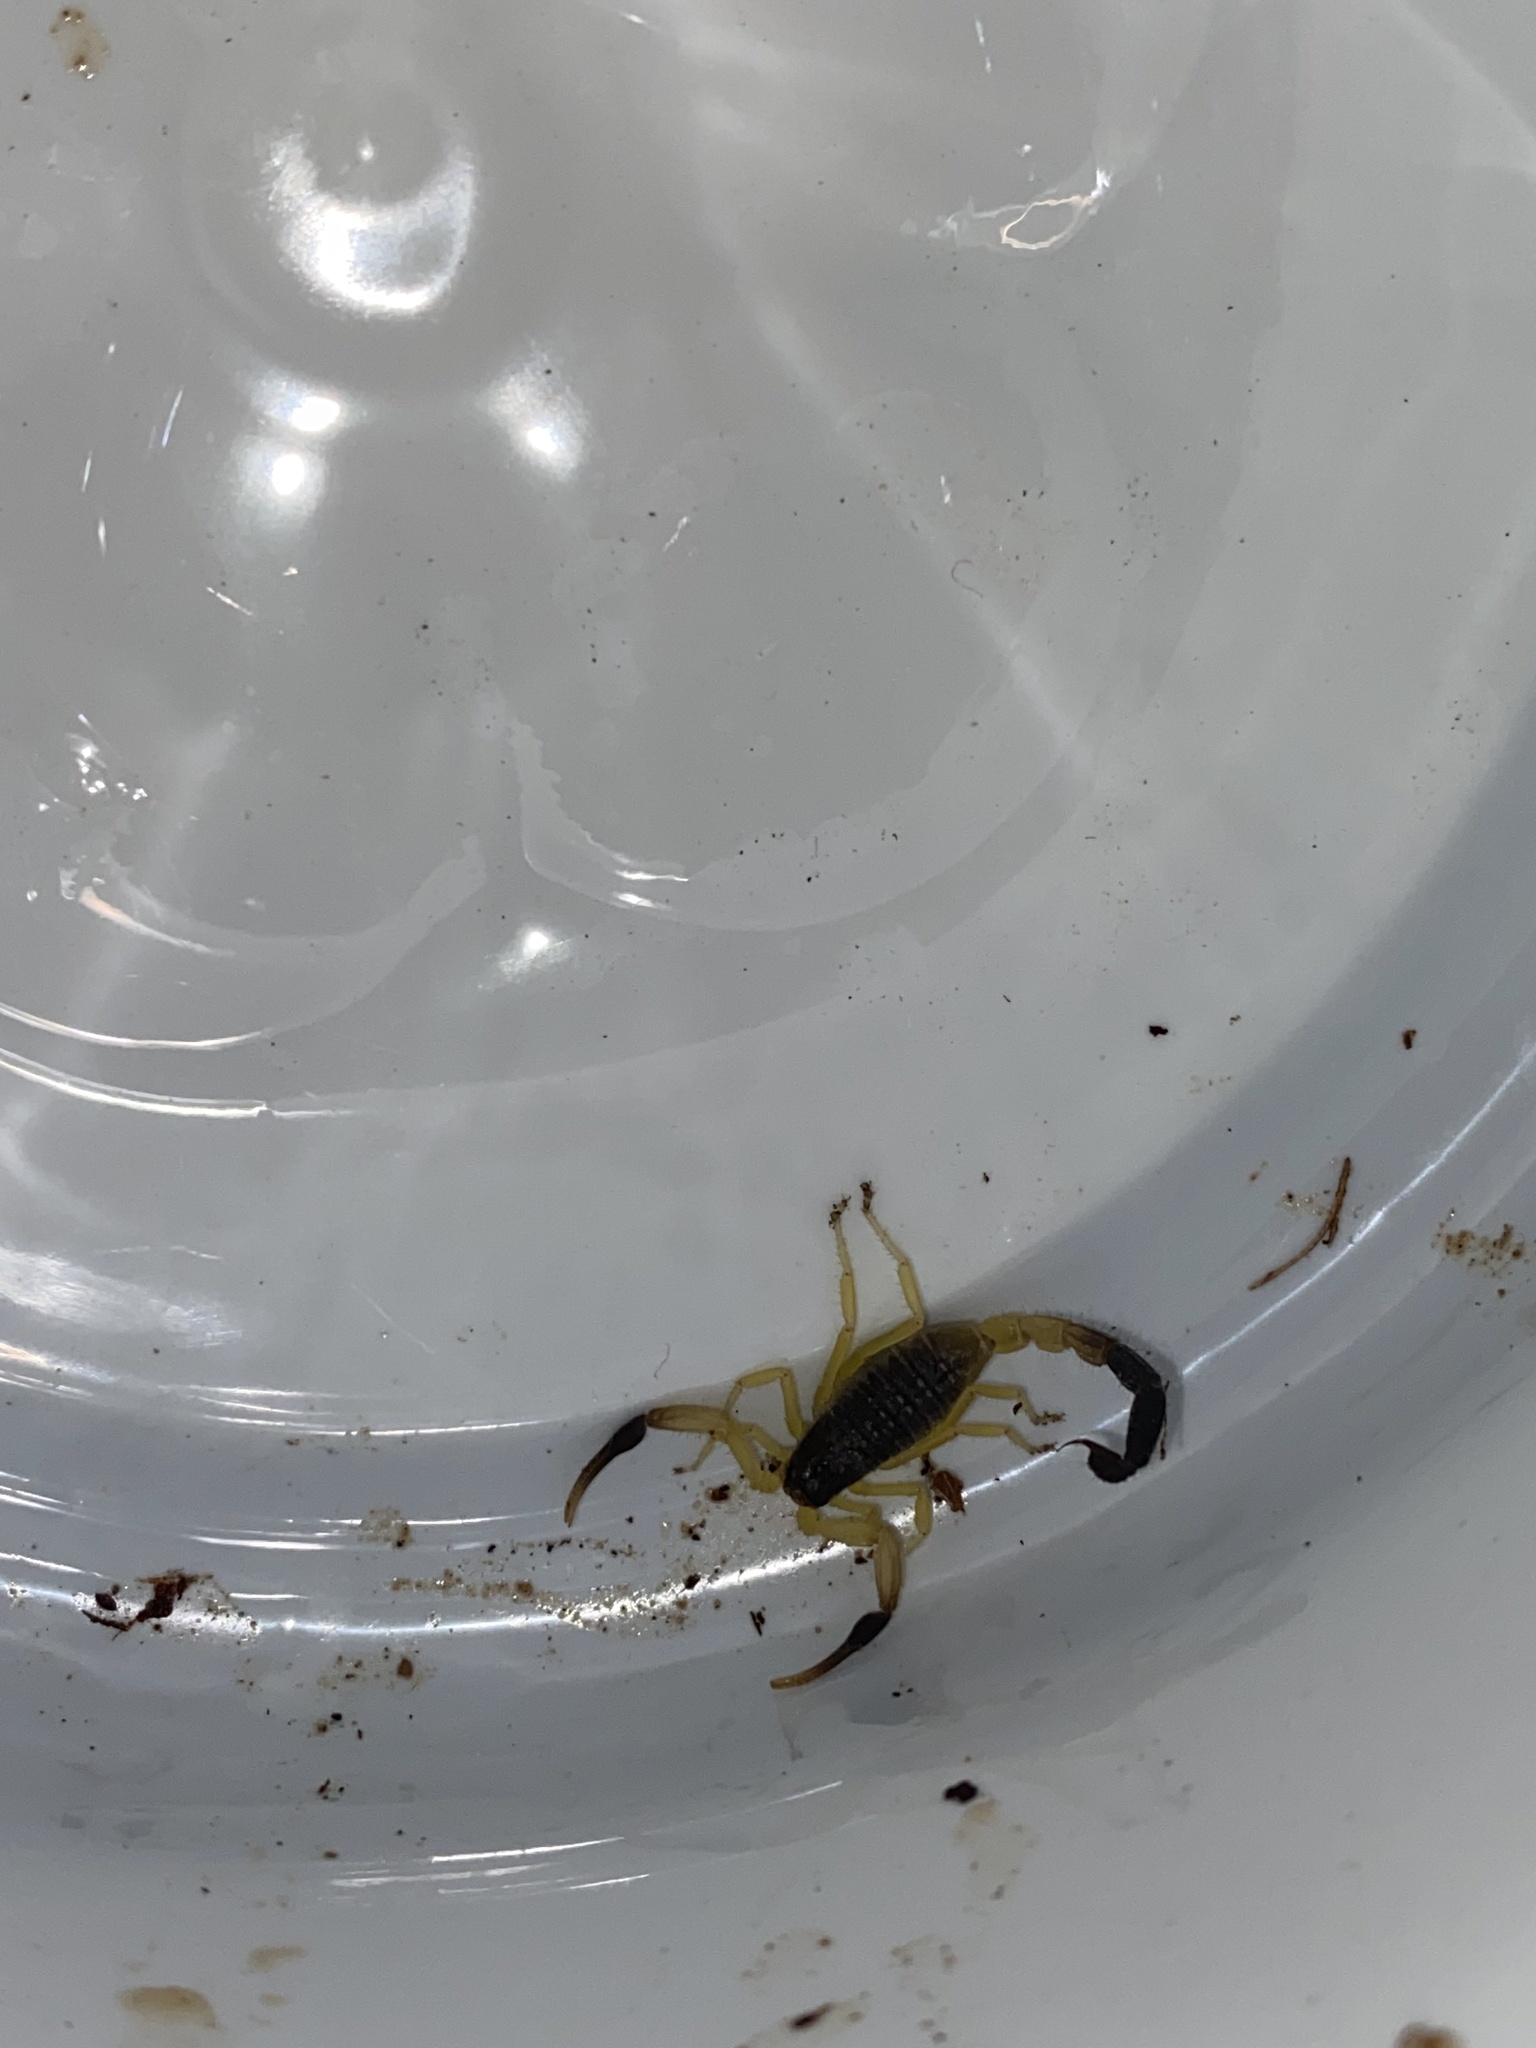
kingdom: Animalia
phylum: Arthropoda
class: Arachnida
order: Scorpiones
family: Buthidae
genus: Hottentotta
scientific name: Hottentotta jayakari
